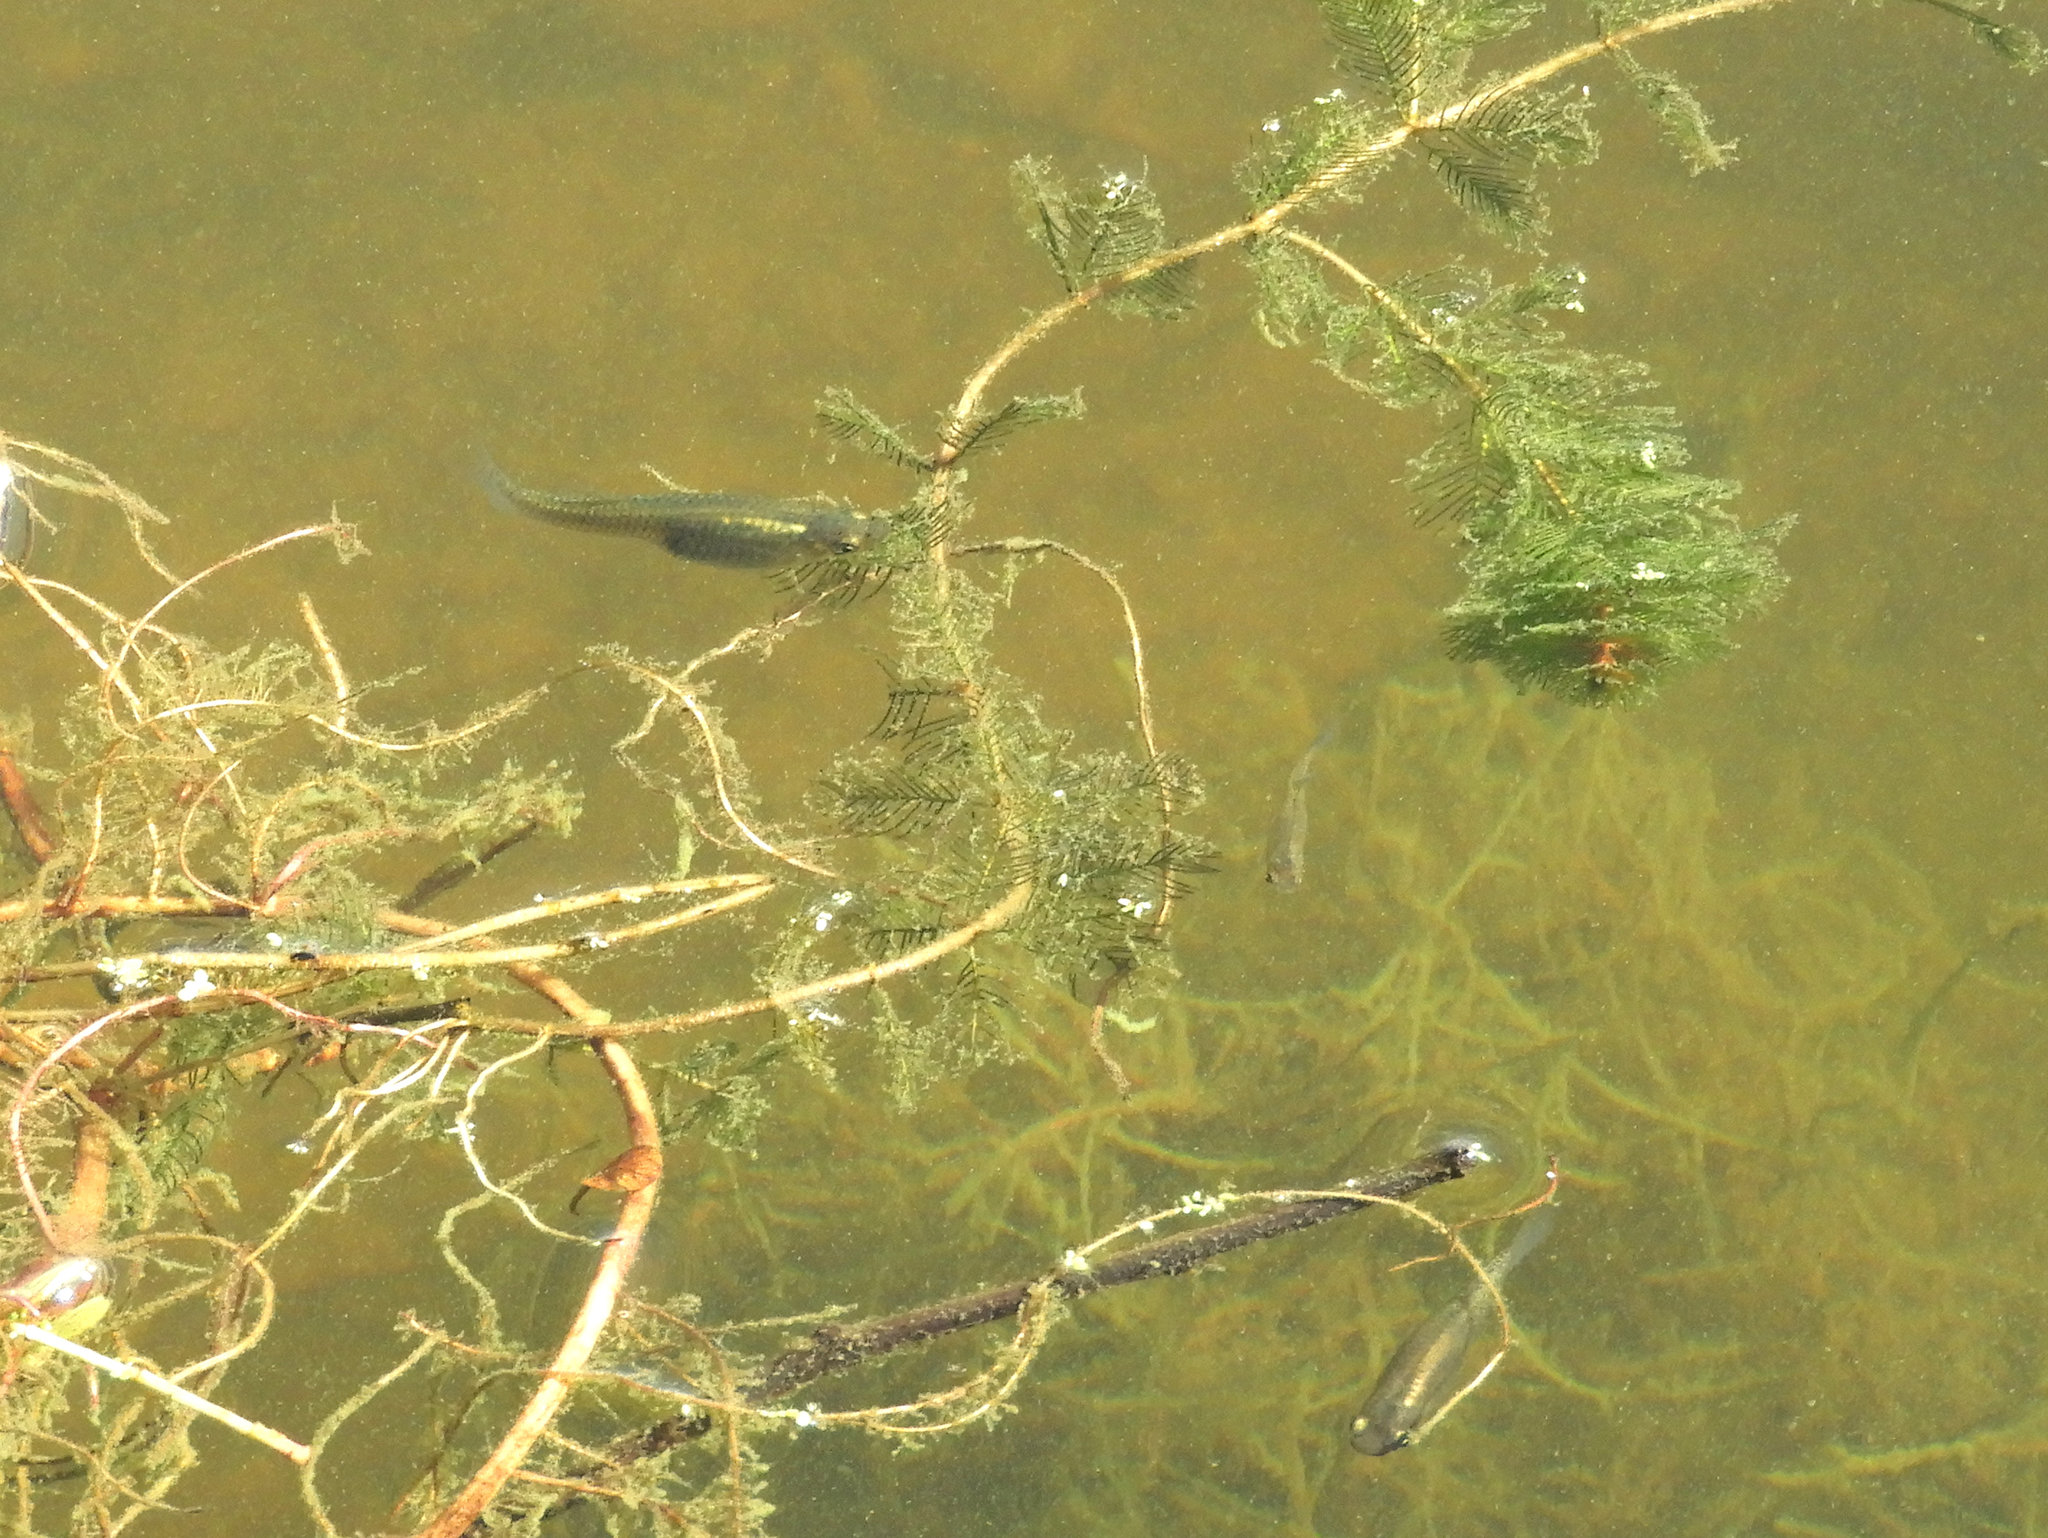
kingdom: Animalia
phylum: Chordata
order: Cyprinodontiformes
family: Poeciliidae
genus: Gambusia
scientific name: Gambusia affinis
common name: Mosquitofish
